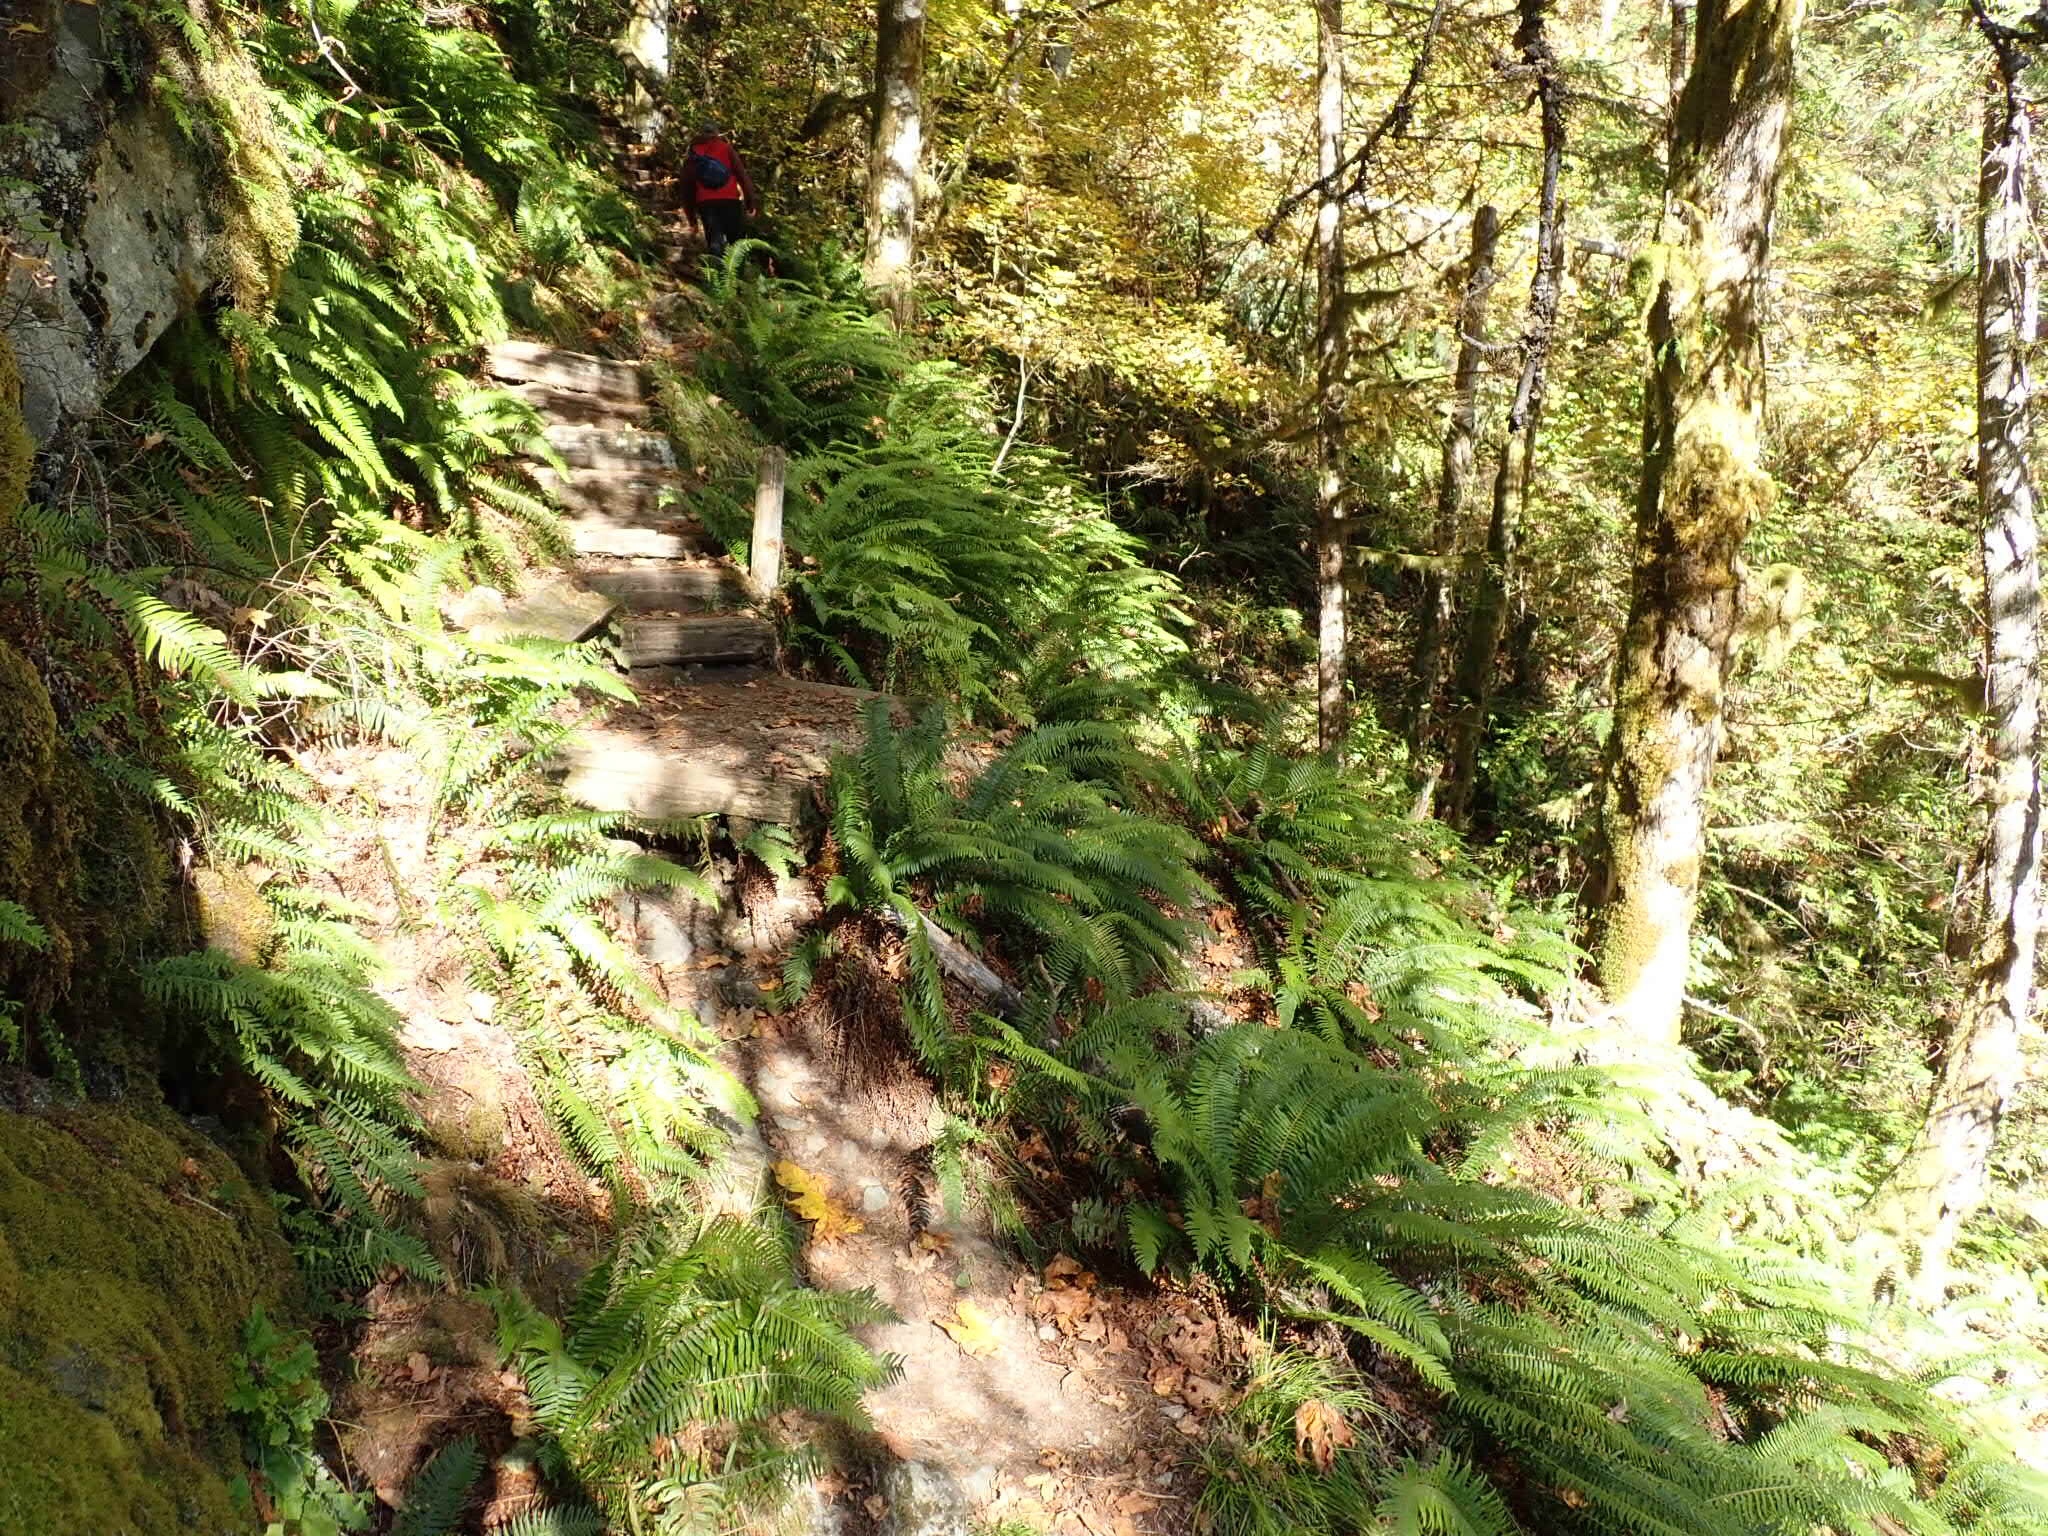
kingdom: Plantae
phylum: Tracheophyta
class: Polypodiopsida
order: Polypodiales
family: Dryopteridaceae
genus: Polystichum
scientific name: Polystichum munitum
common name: Western sword-fern
